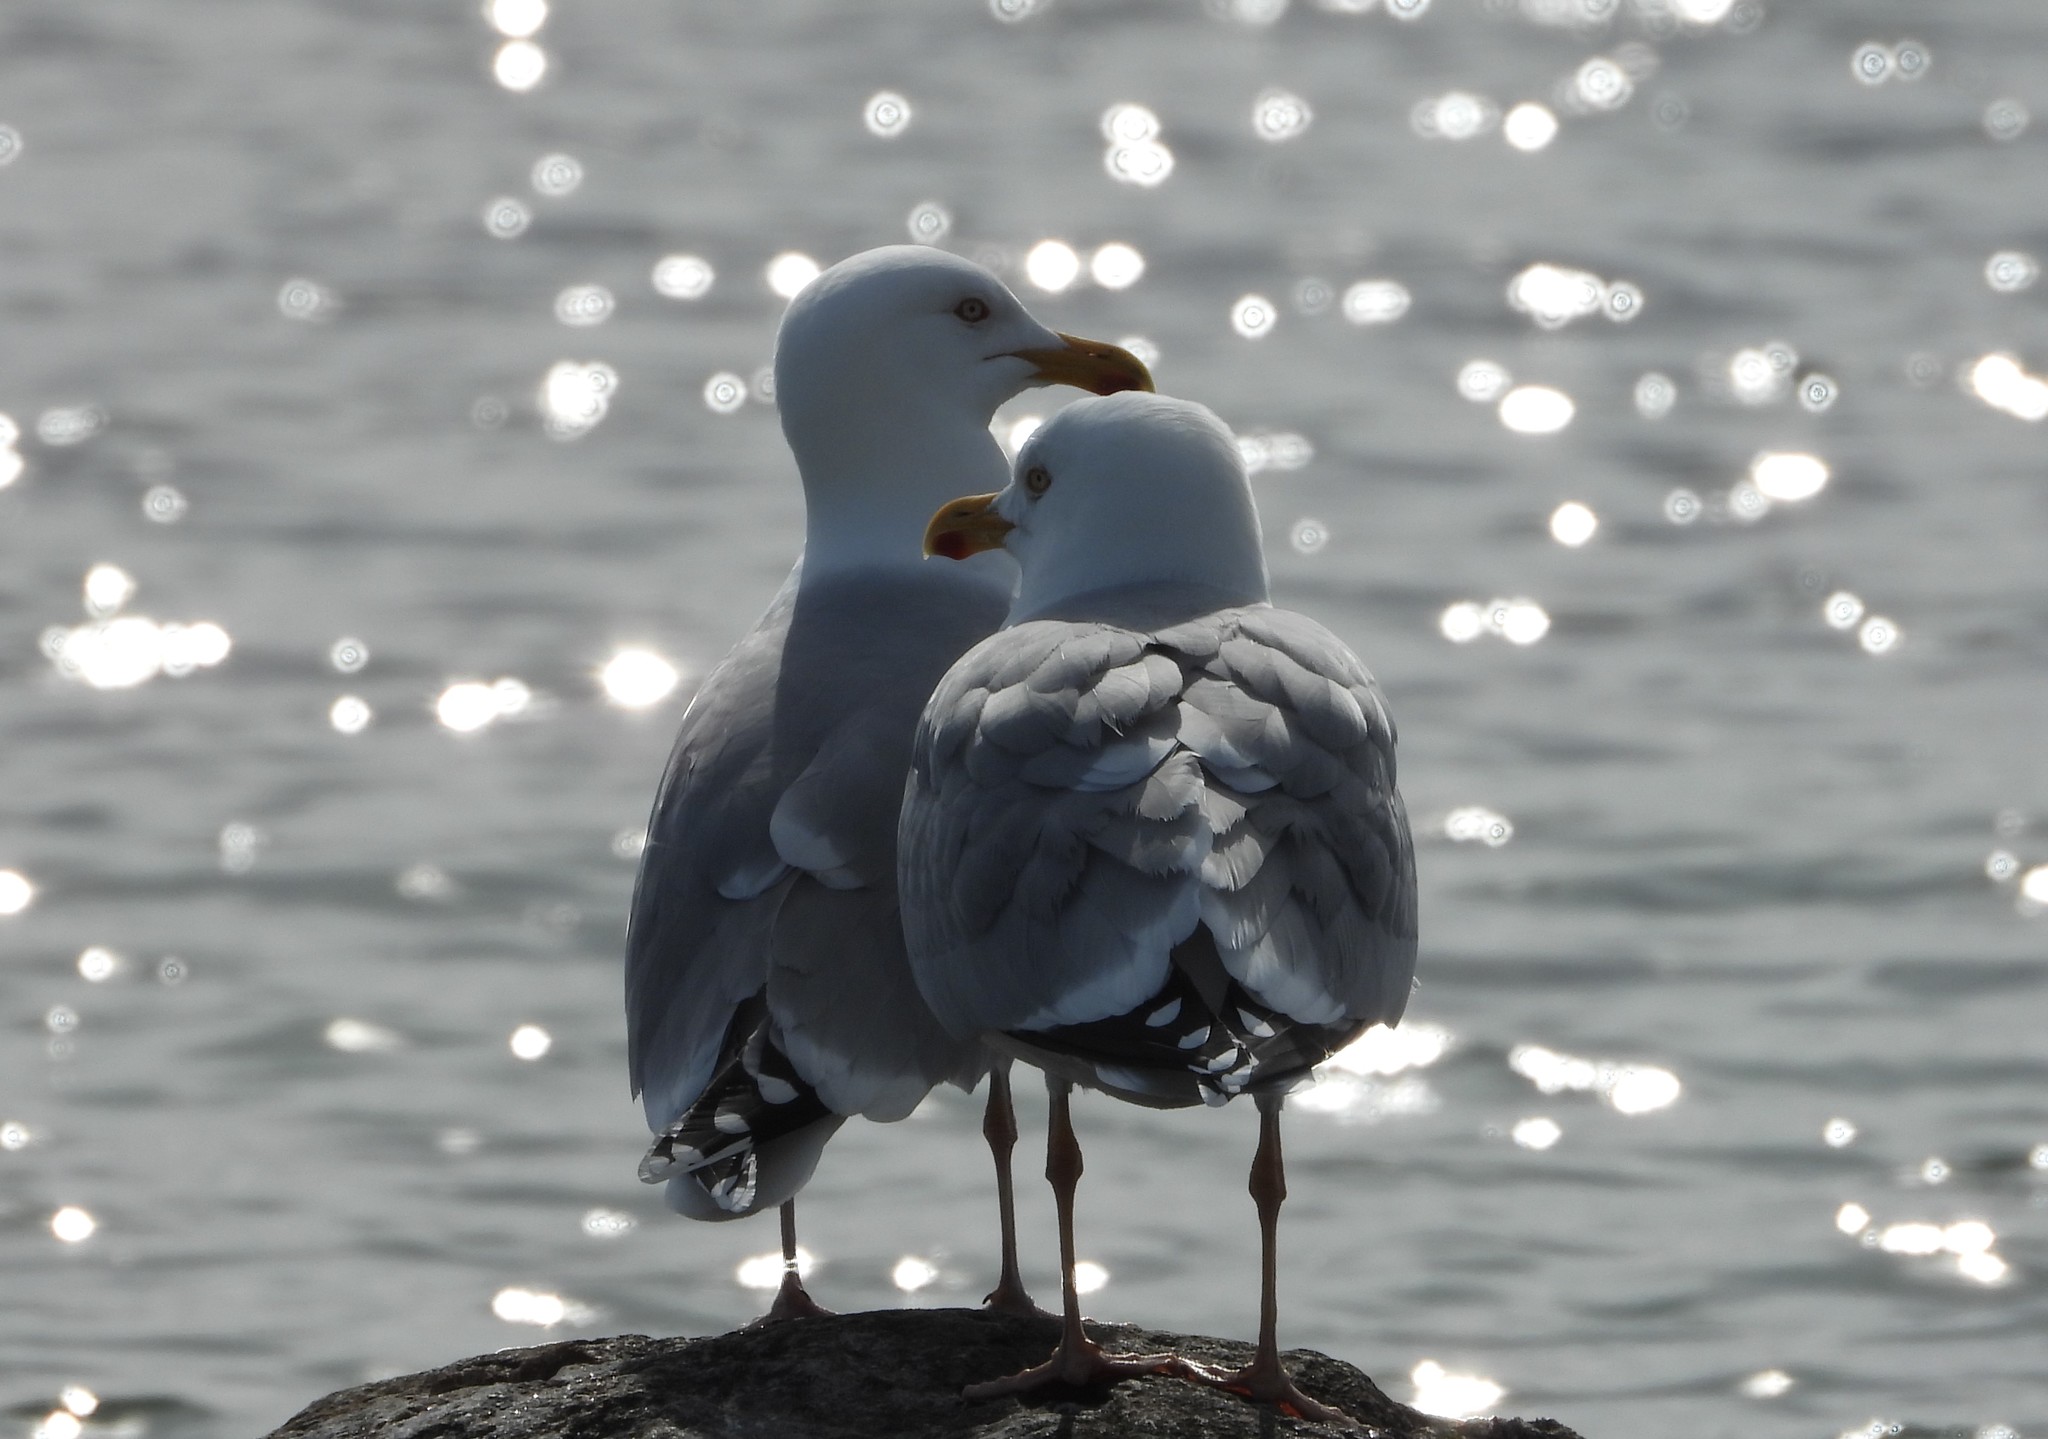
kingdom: Animalia
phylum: Chordata
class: Aves
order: Charadriiformes
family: Laridae
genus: Larus
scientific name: Larus argentatus
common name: Herring gull
